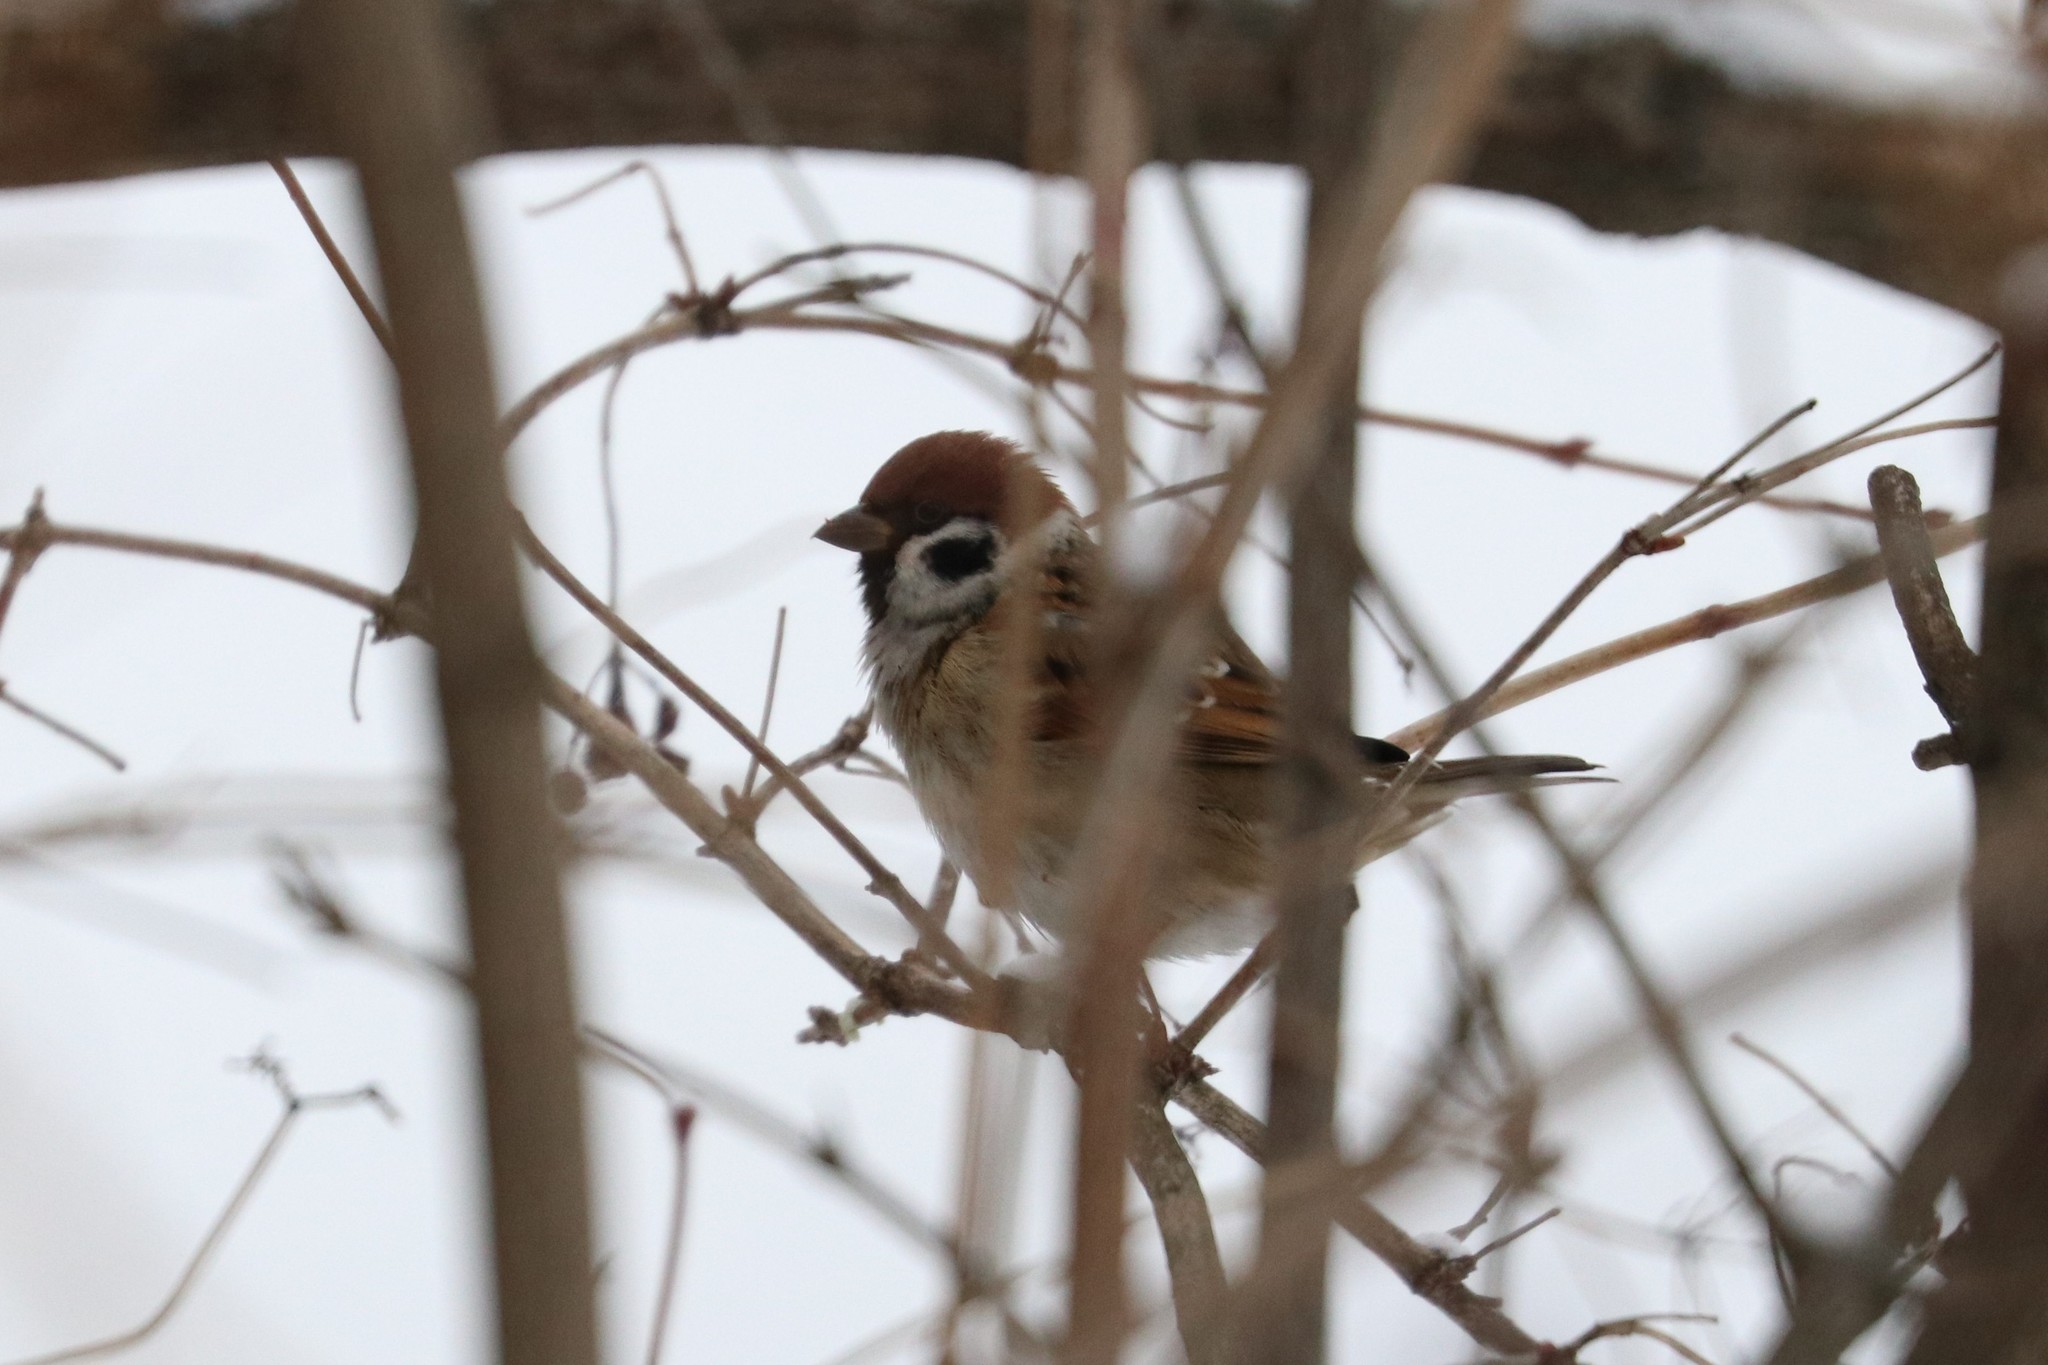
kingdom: Animalia
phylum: Chordata
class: Aves
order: Passeriformes
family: Passeridae
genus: Passer
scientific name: Passer montanus
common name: Eurasian tree sparrow
